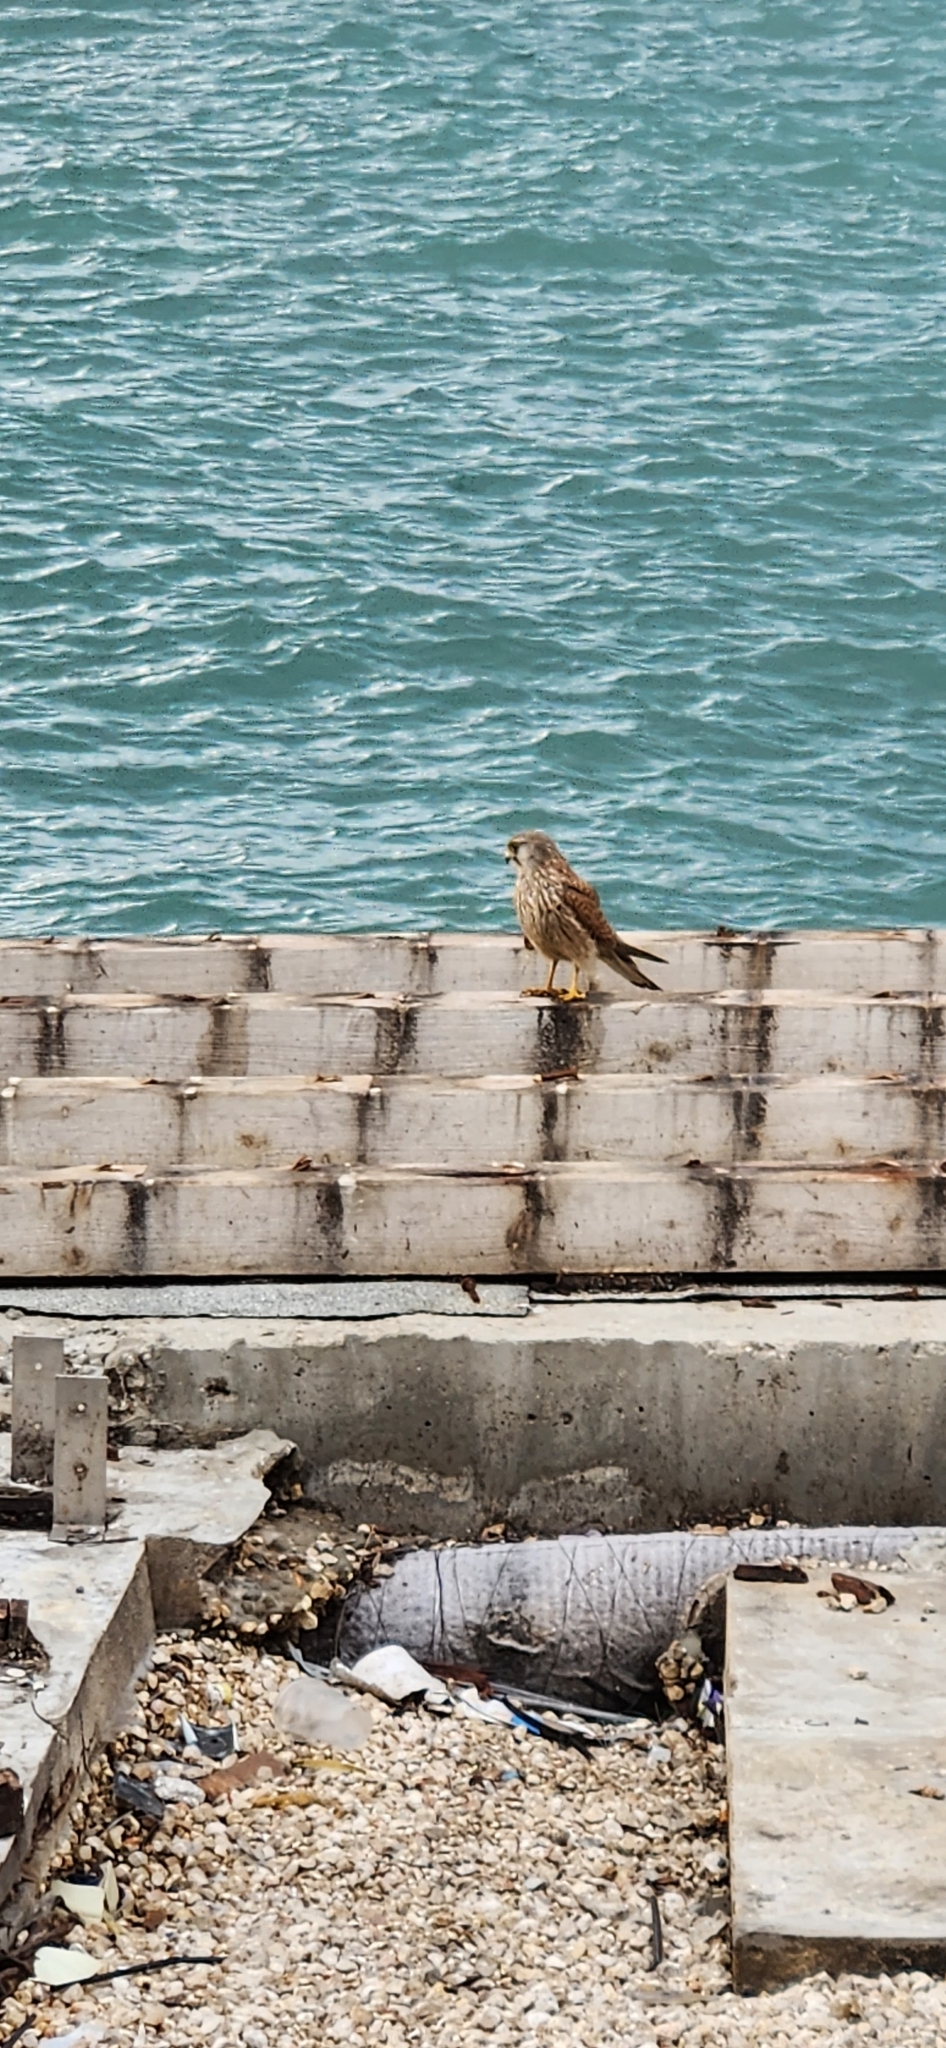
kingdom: Animalia
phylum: Chordata
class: Aves
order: Falconiformes
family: Falconidae
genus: Falco
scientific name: Falco tinnunculus
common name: Common kestrel
